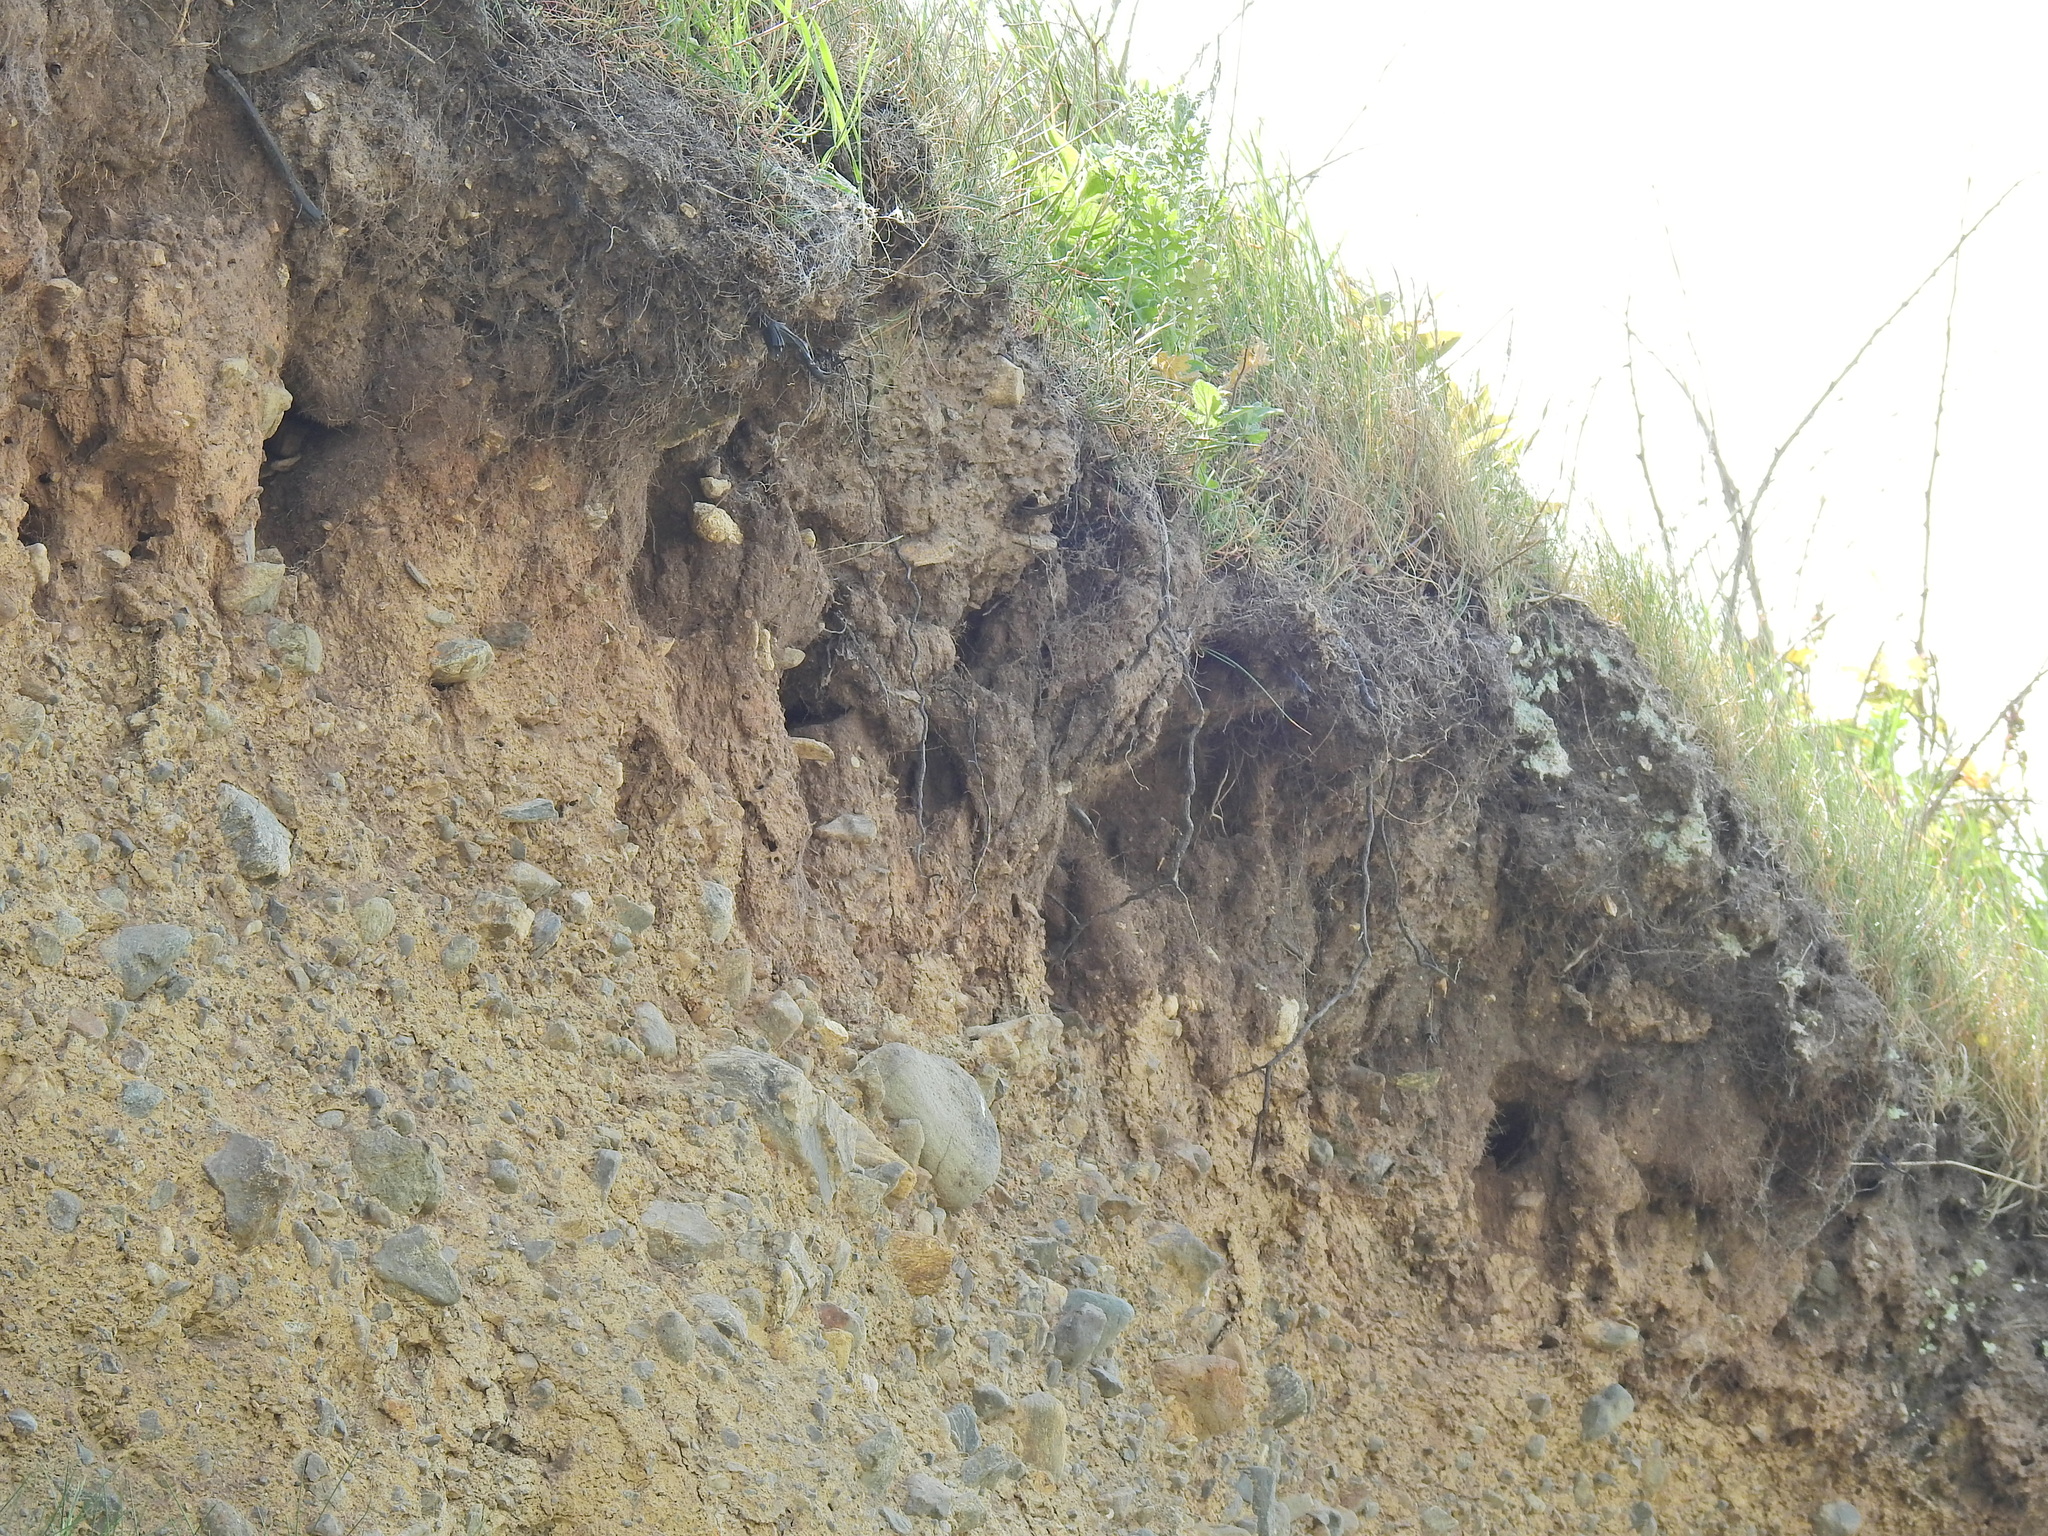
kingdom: Animalia
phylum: Chordata
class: Aves
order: Passeriformes
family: Hirundinidae
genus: Riparia
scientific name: Riparia riparia
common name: Sand martin
